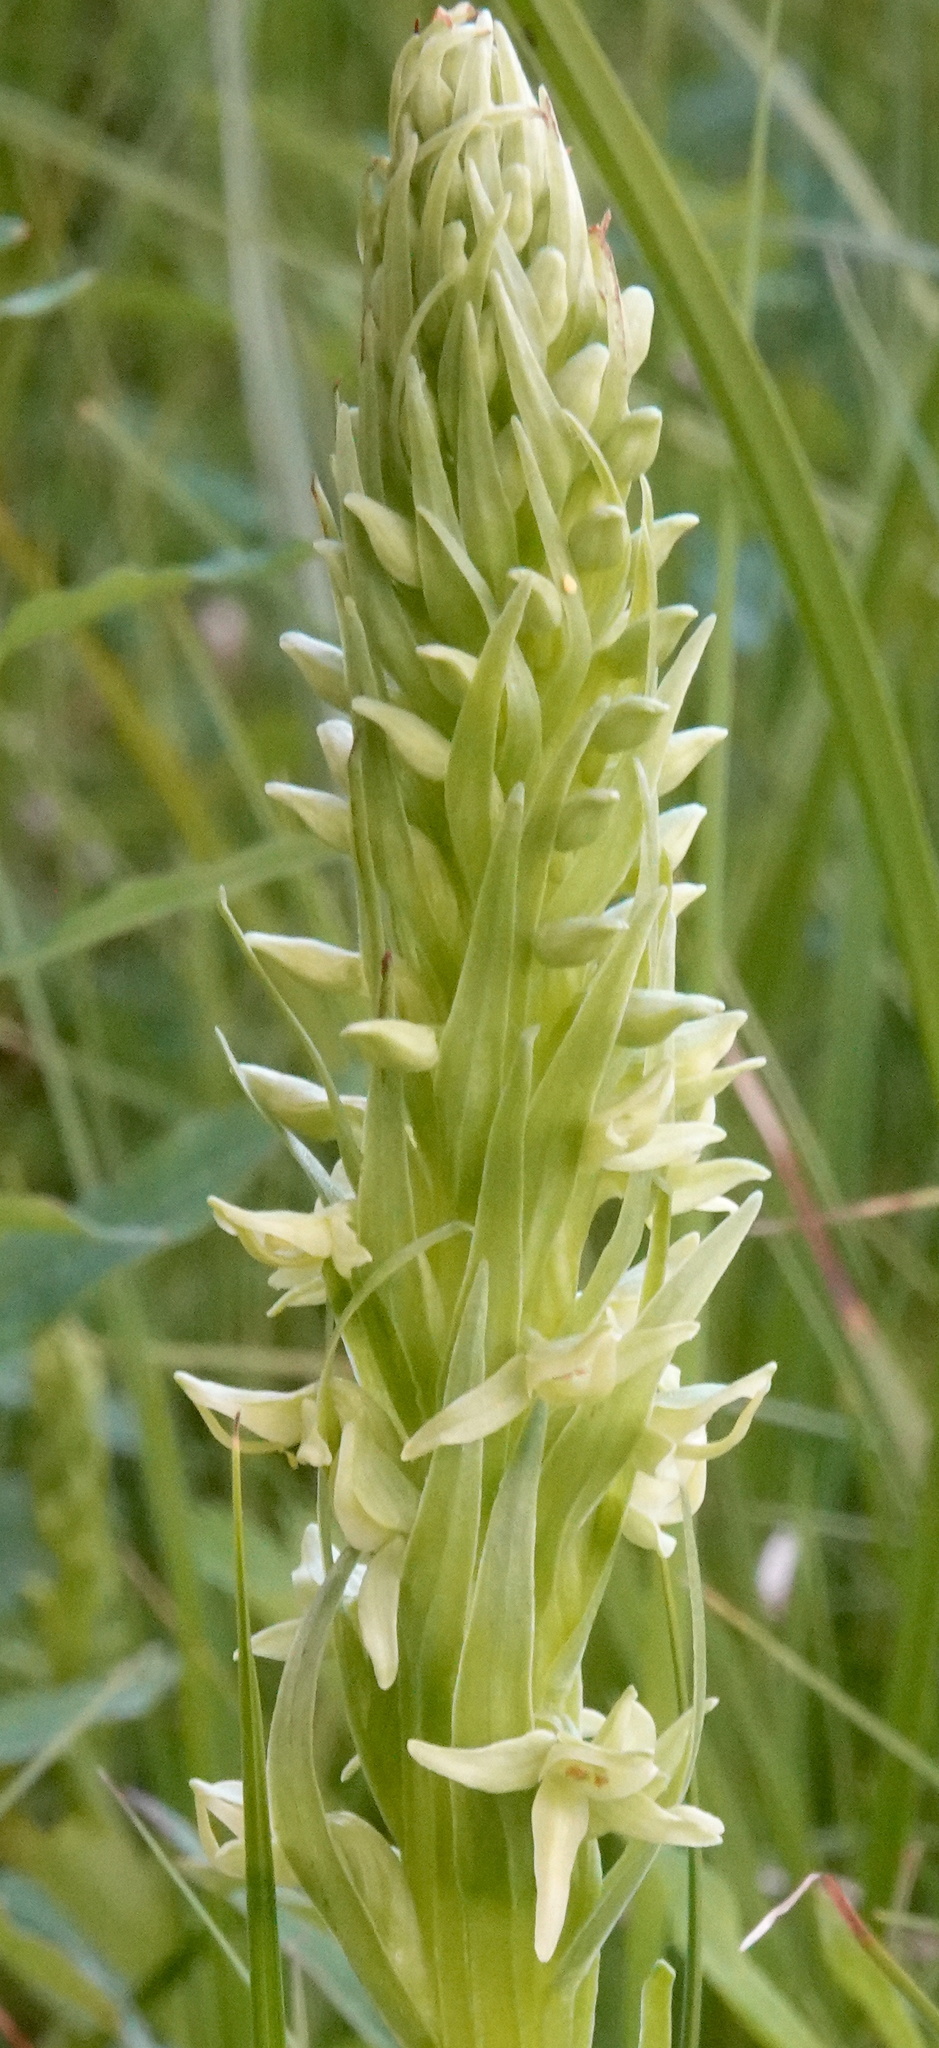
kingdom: Plantae
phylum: Tracheophyta
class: Liliopsida
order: Asparagales
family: Orchidaceae
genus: Platanthera
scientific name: Platanthera huronensis
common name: Fragrant green orchid
